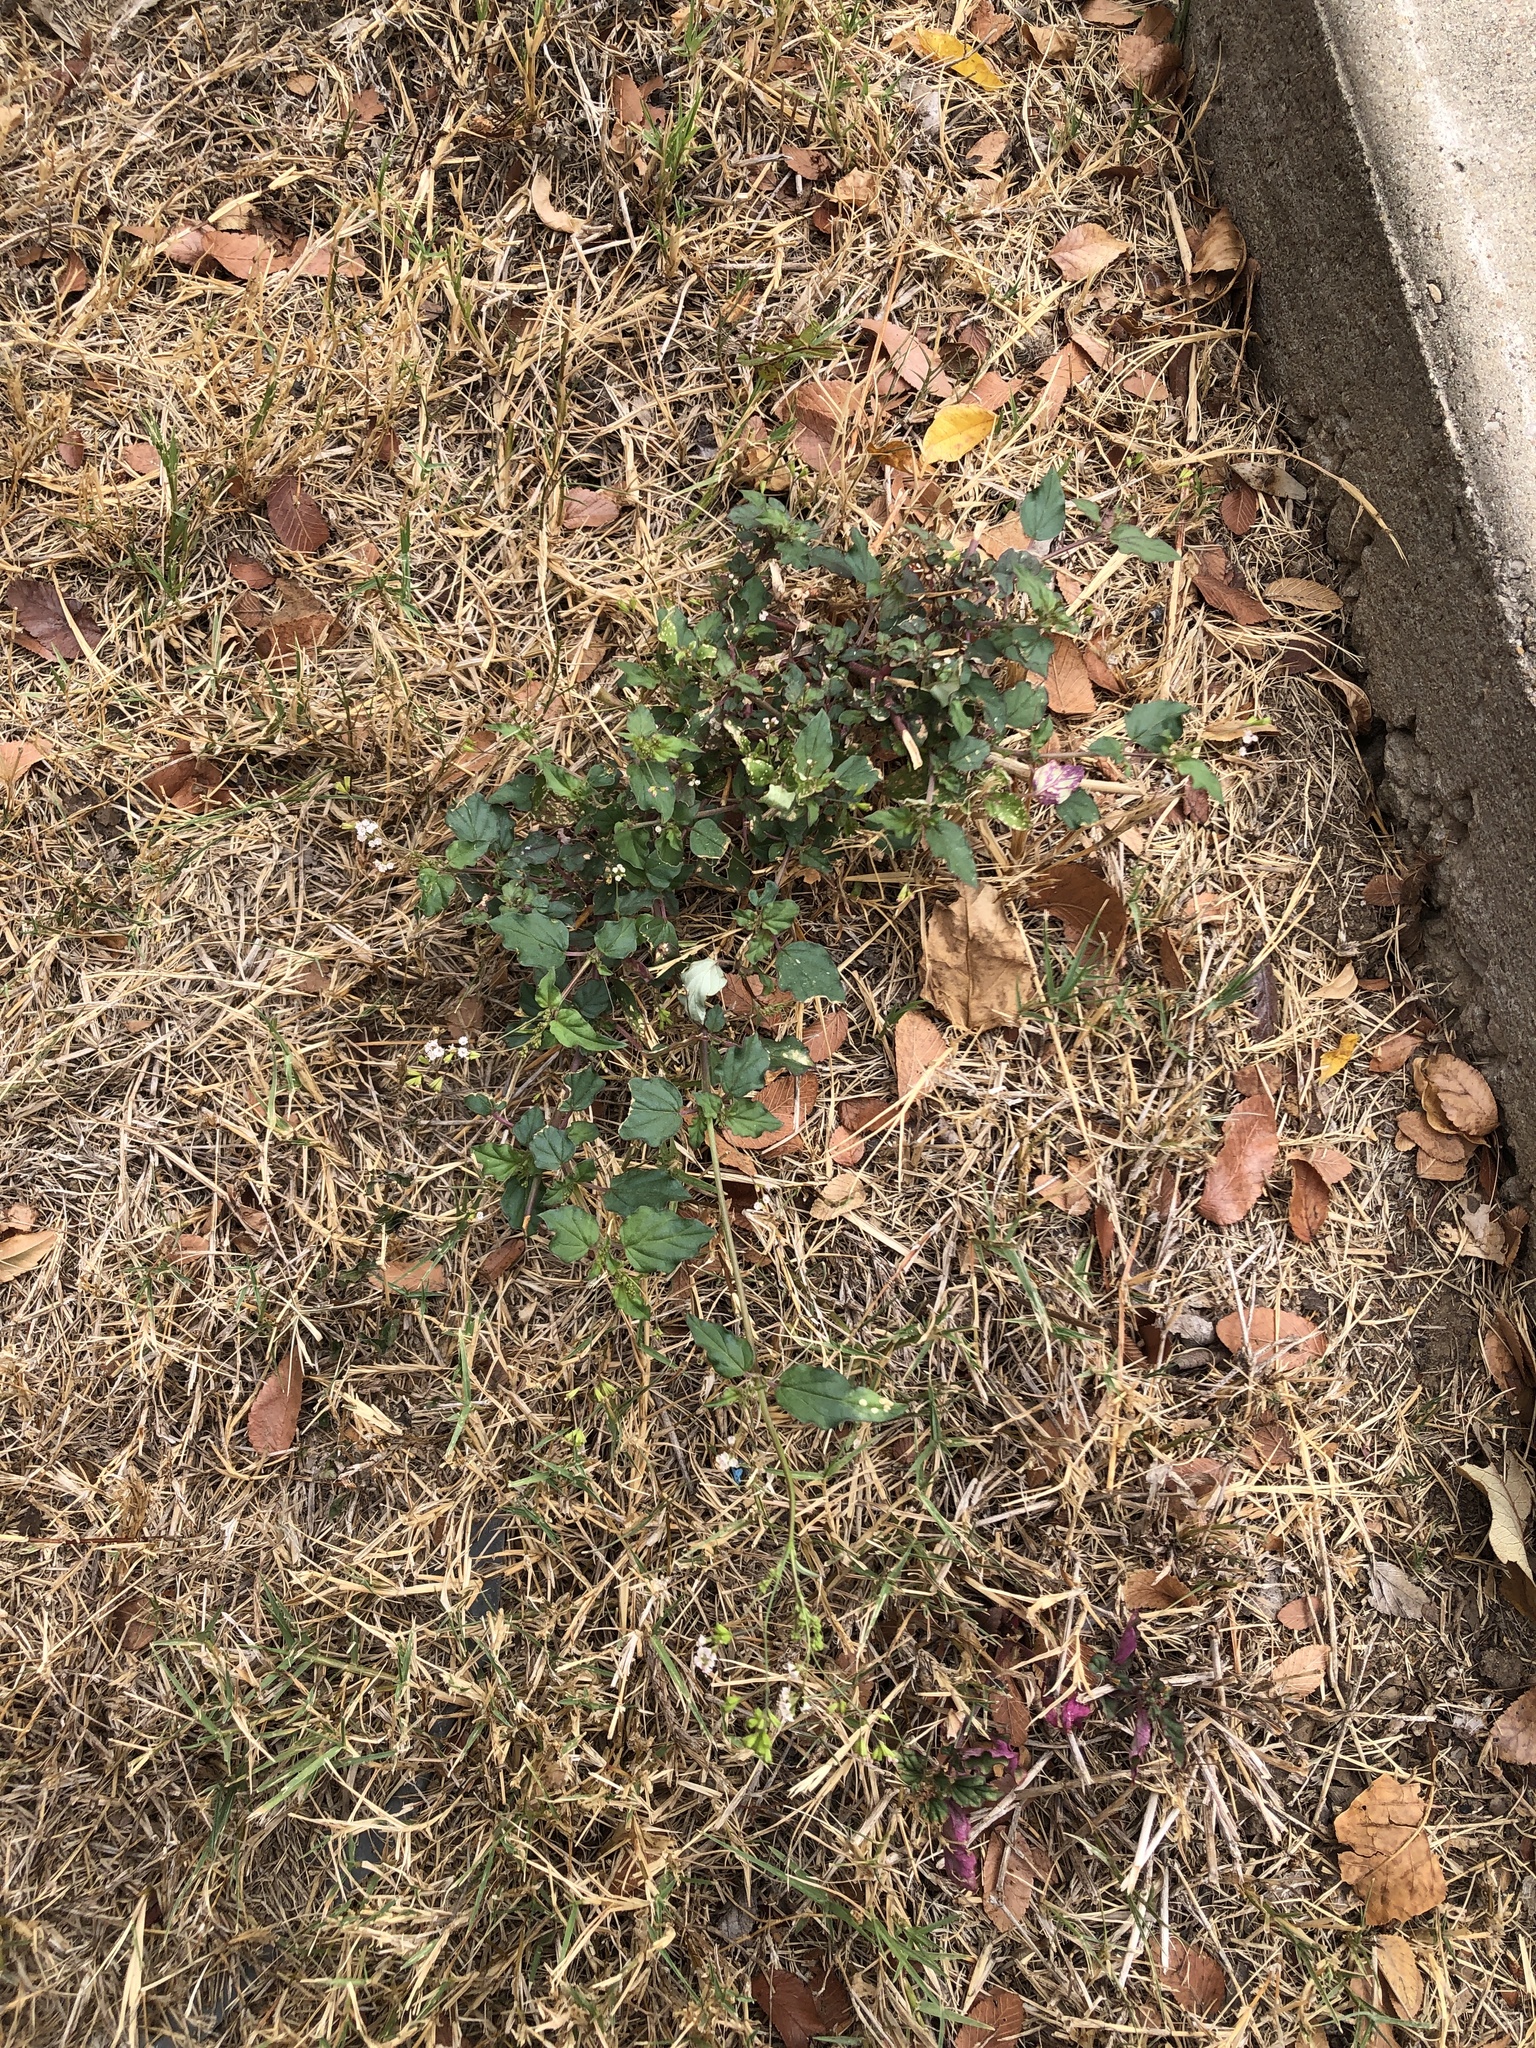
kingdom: Plantae
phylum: Tracheophyta
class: Magnoliopsida
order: Caryophyllales
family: Nyctaginaceae
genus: Boerhavia
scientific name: Boerhavia erecta
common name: Erect spiderling
